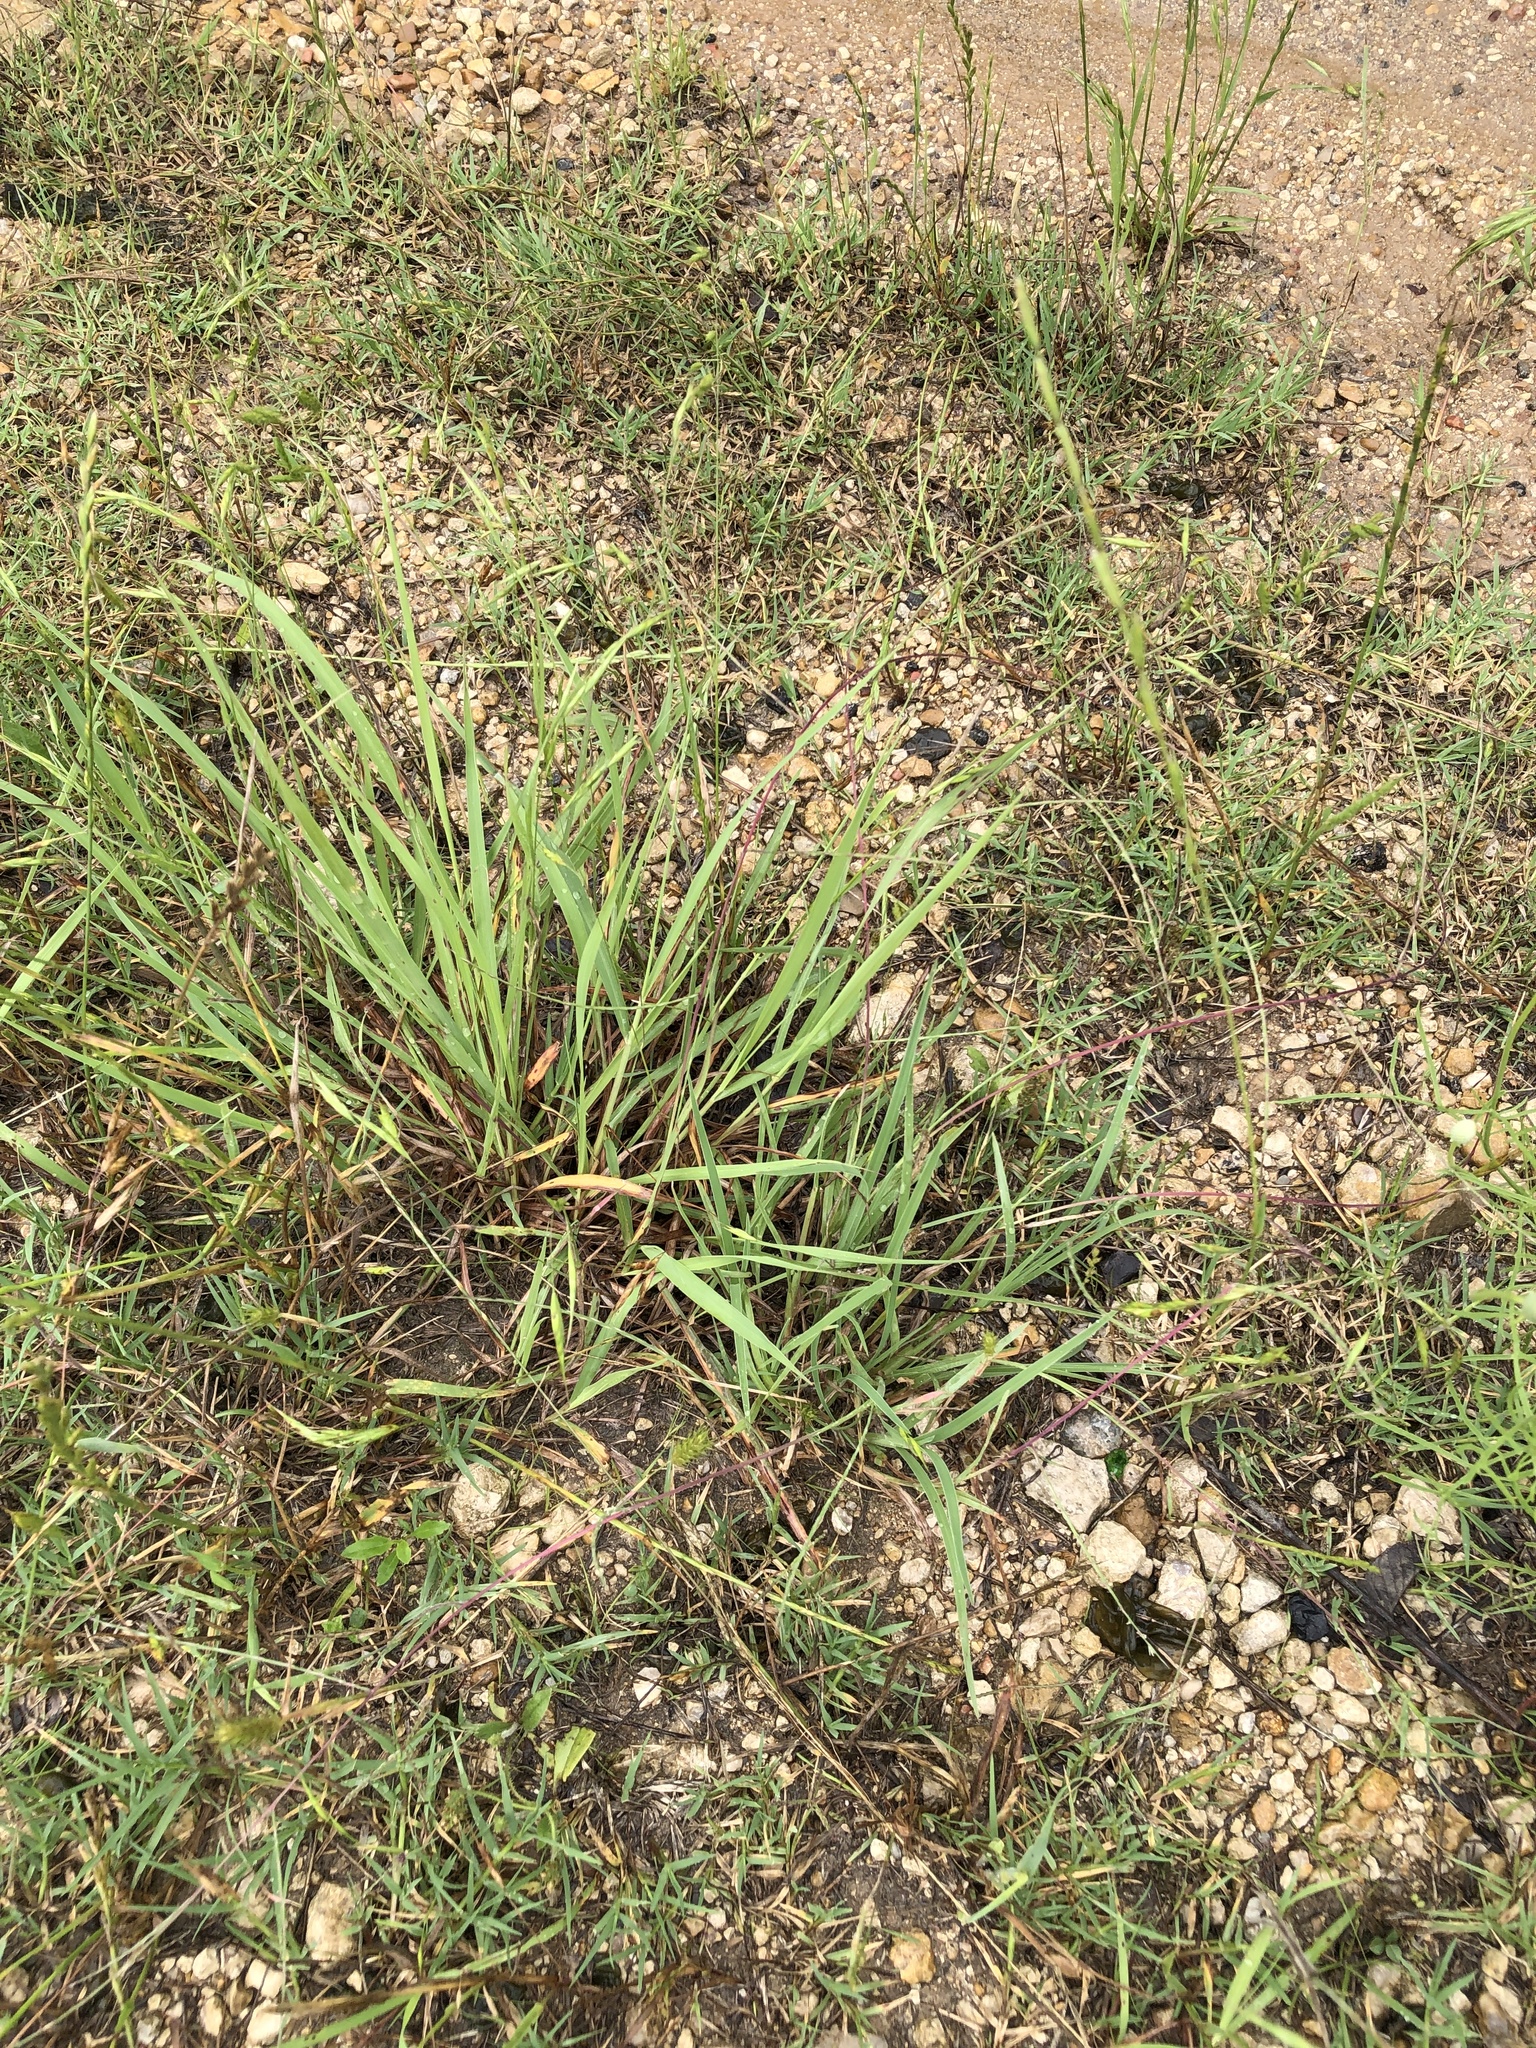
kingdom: Plantae
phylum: Tracheophyta
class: Liliopsida
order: Poales
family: Poaceae
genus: Muhlenbergia
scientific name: Muhlenbergia paniculata
